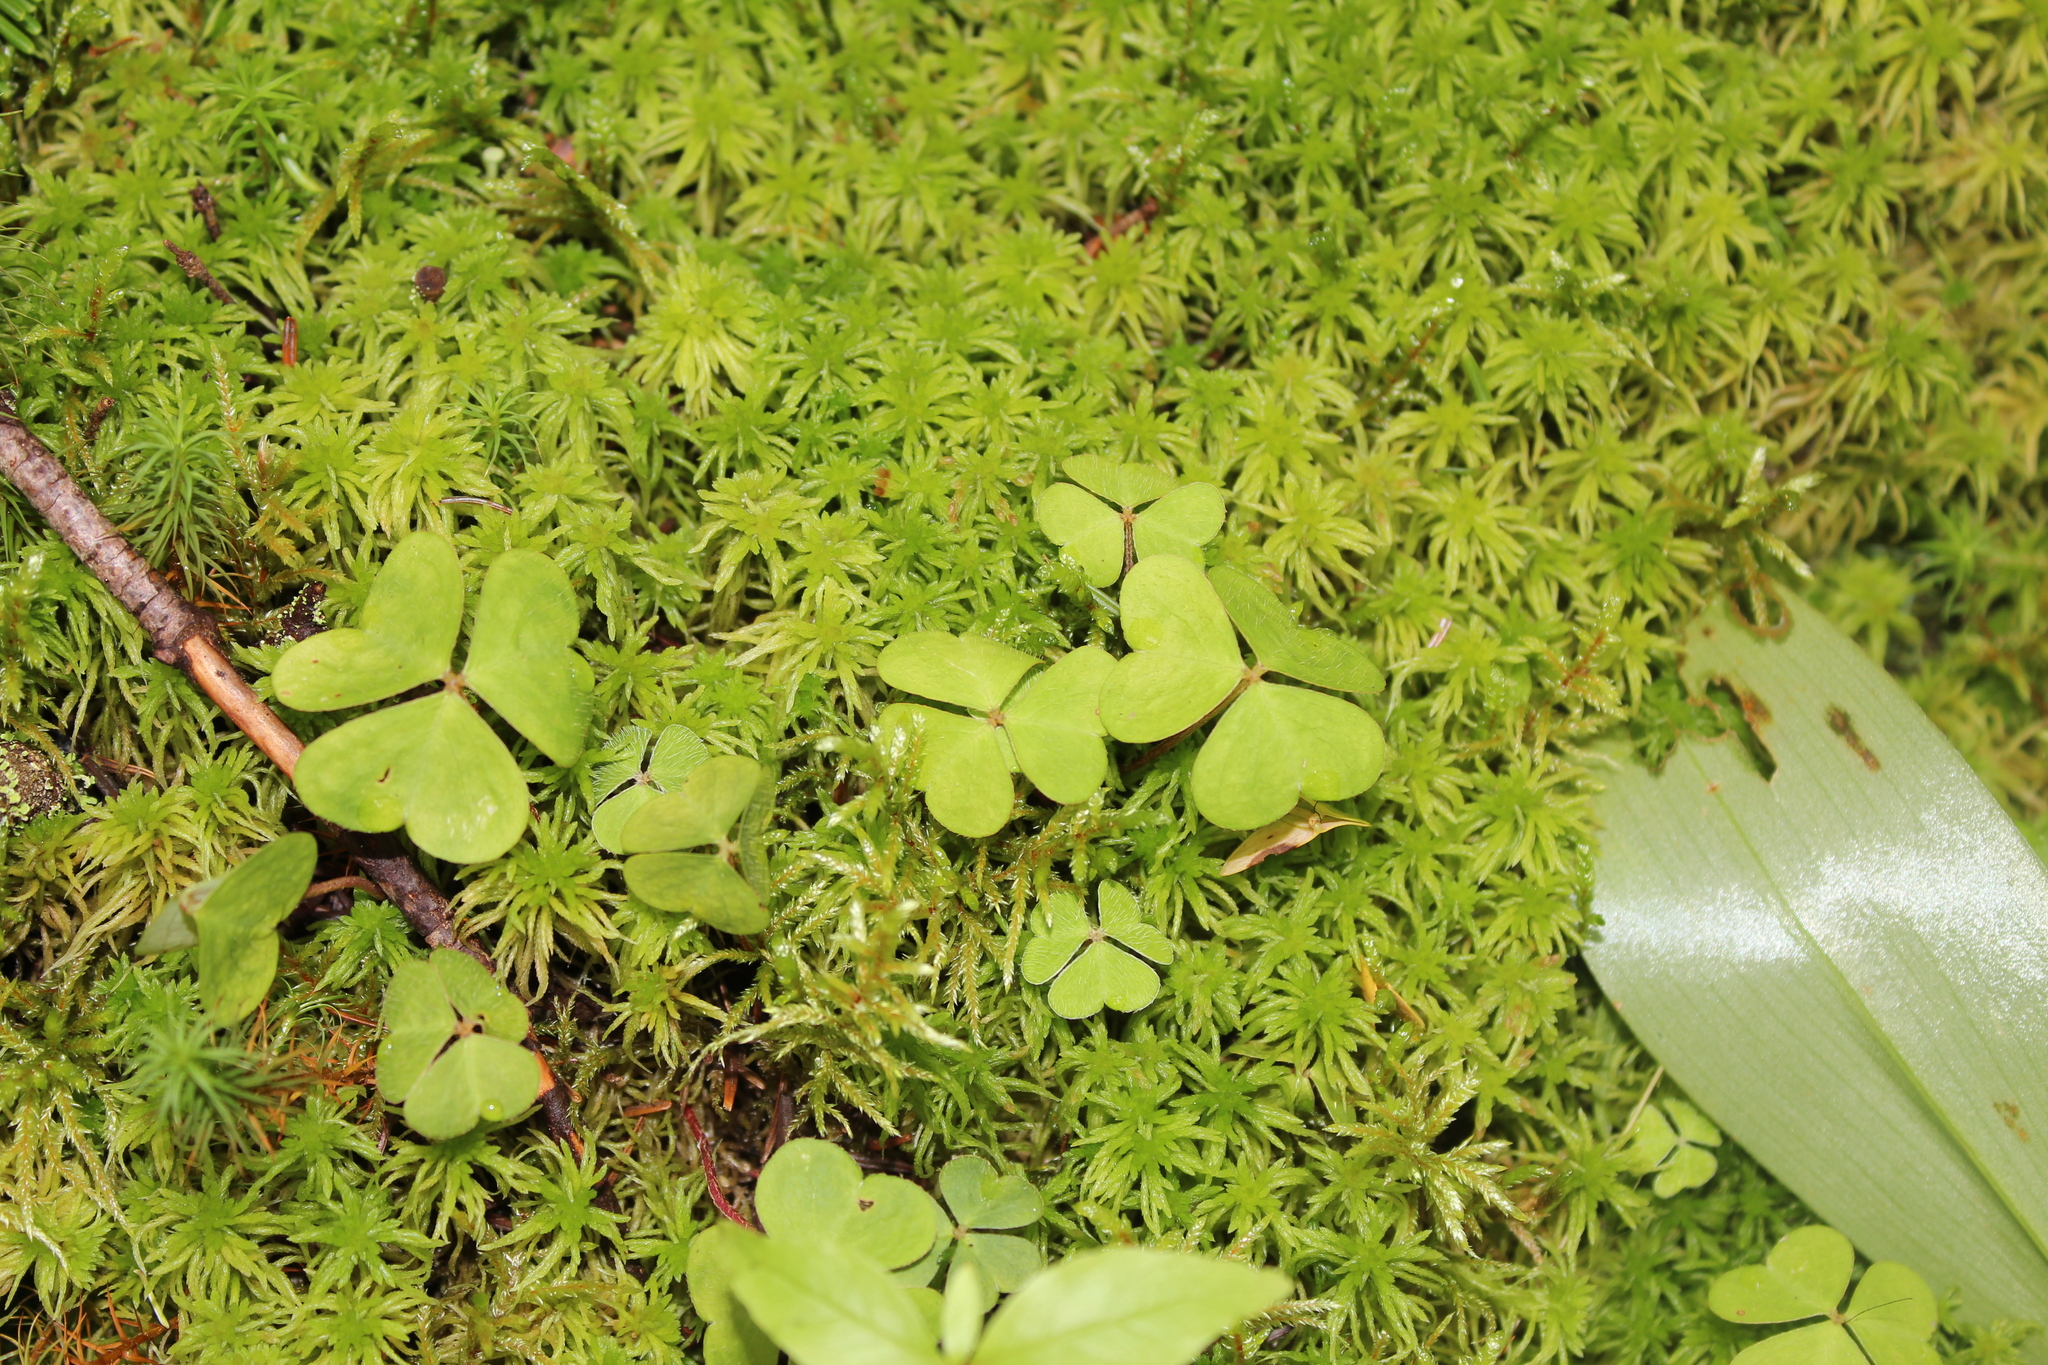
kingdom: Plantae
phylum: Tracheophyta
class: Magnoliopsida
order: Oxalidales
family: Oxalidaceae
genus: Oxalis
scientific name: Oxalis montana
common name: American wood-sorrel
